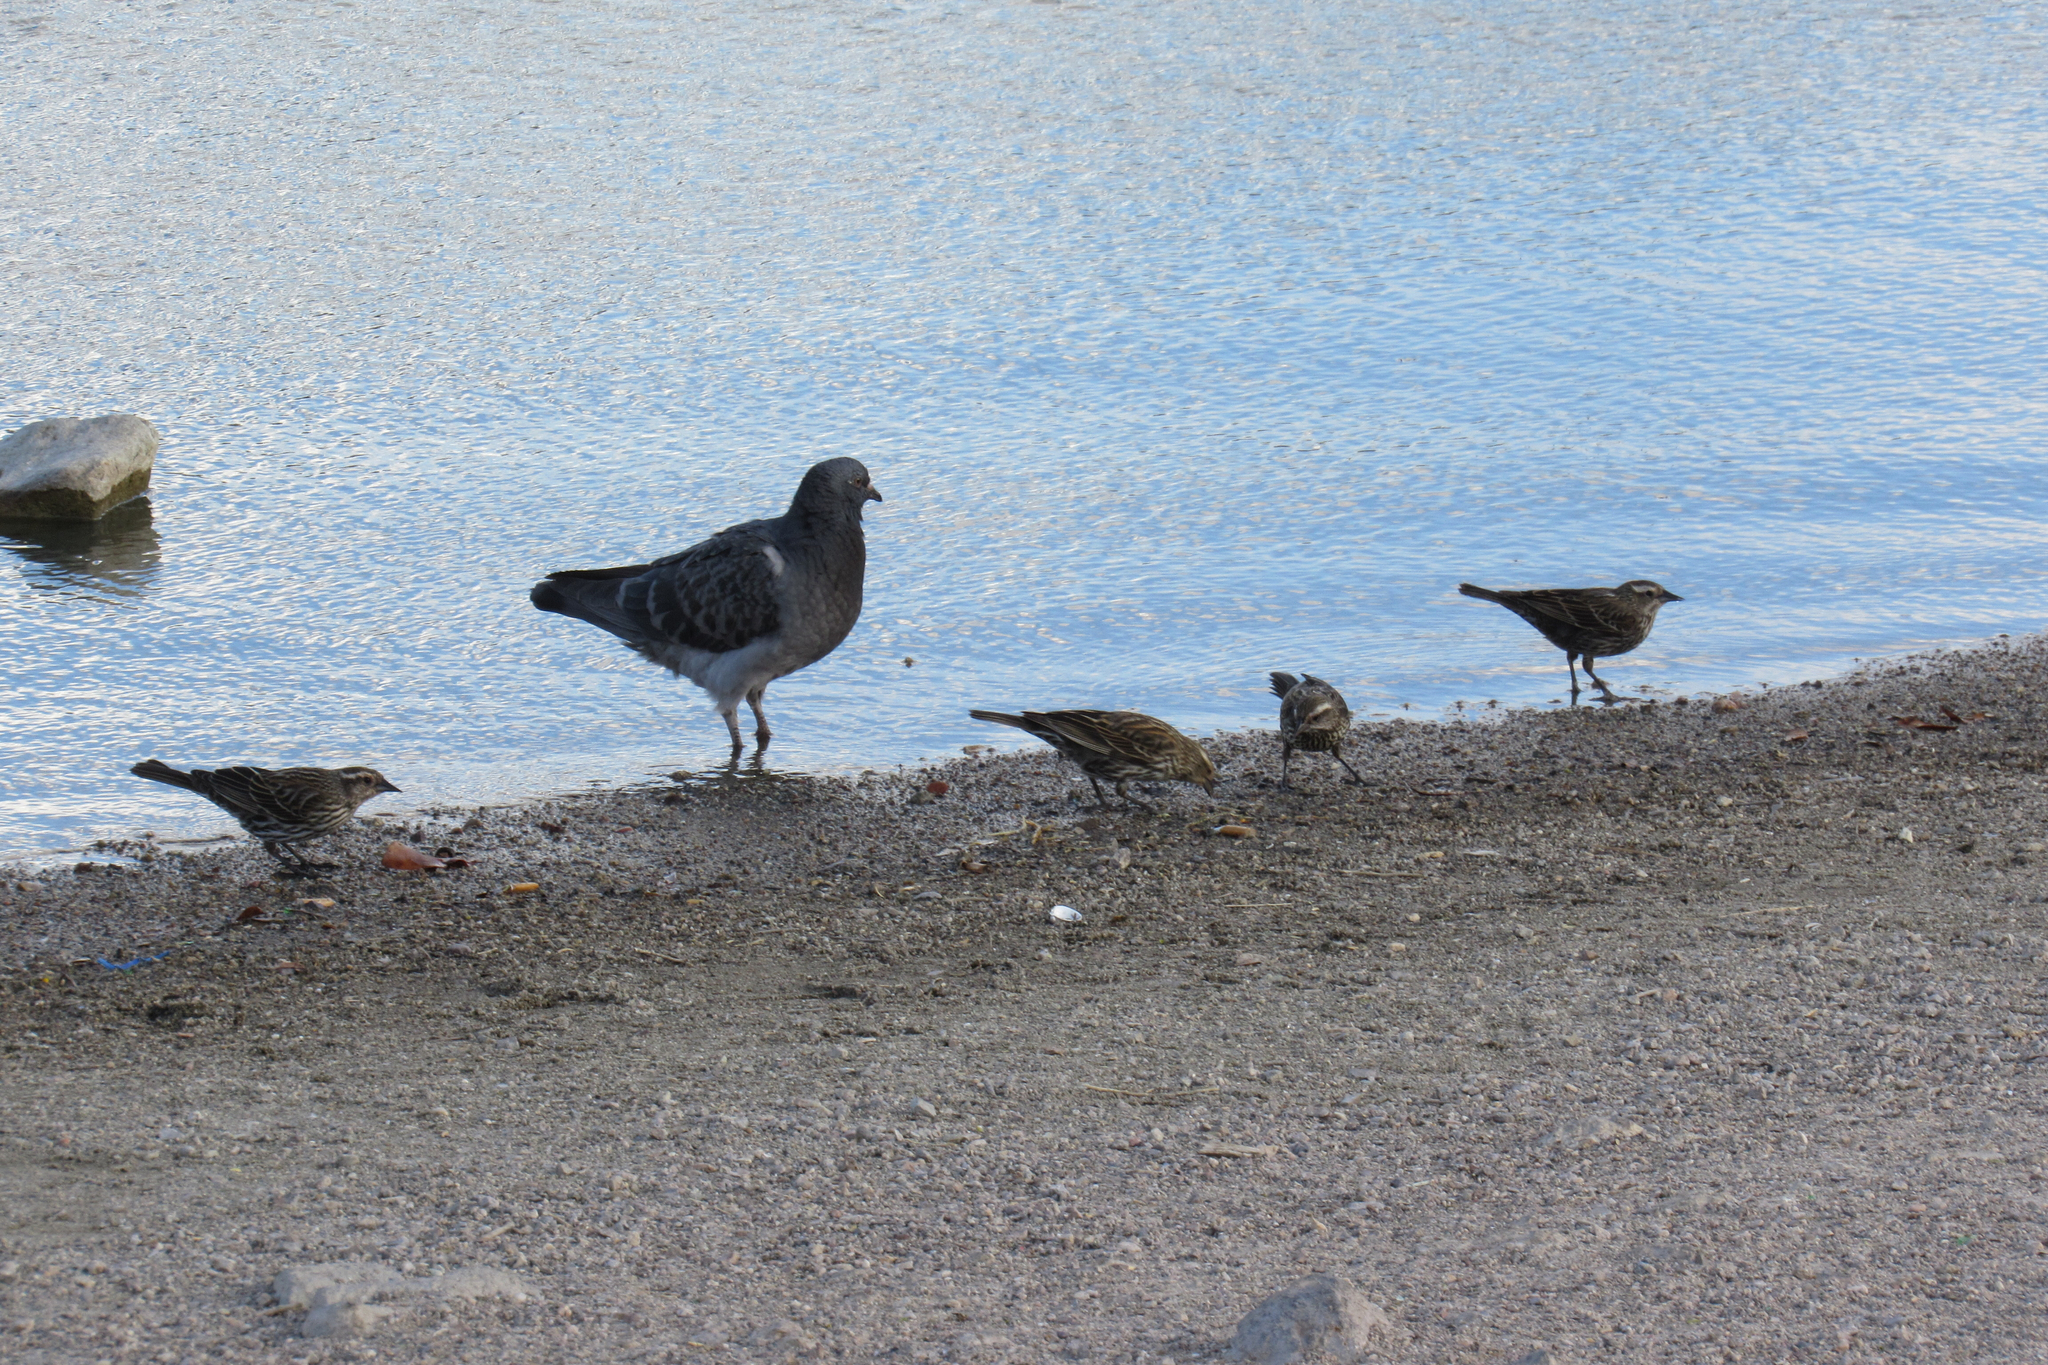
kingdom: Animalia
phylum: Chordata
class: Aves
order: Passeriformes
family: Icteridae
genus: Agelaius
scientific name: Agelaius phoeniceus
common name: Red-winged blackbird
